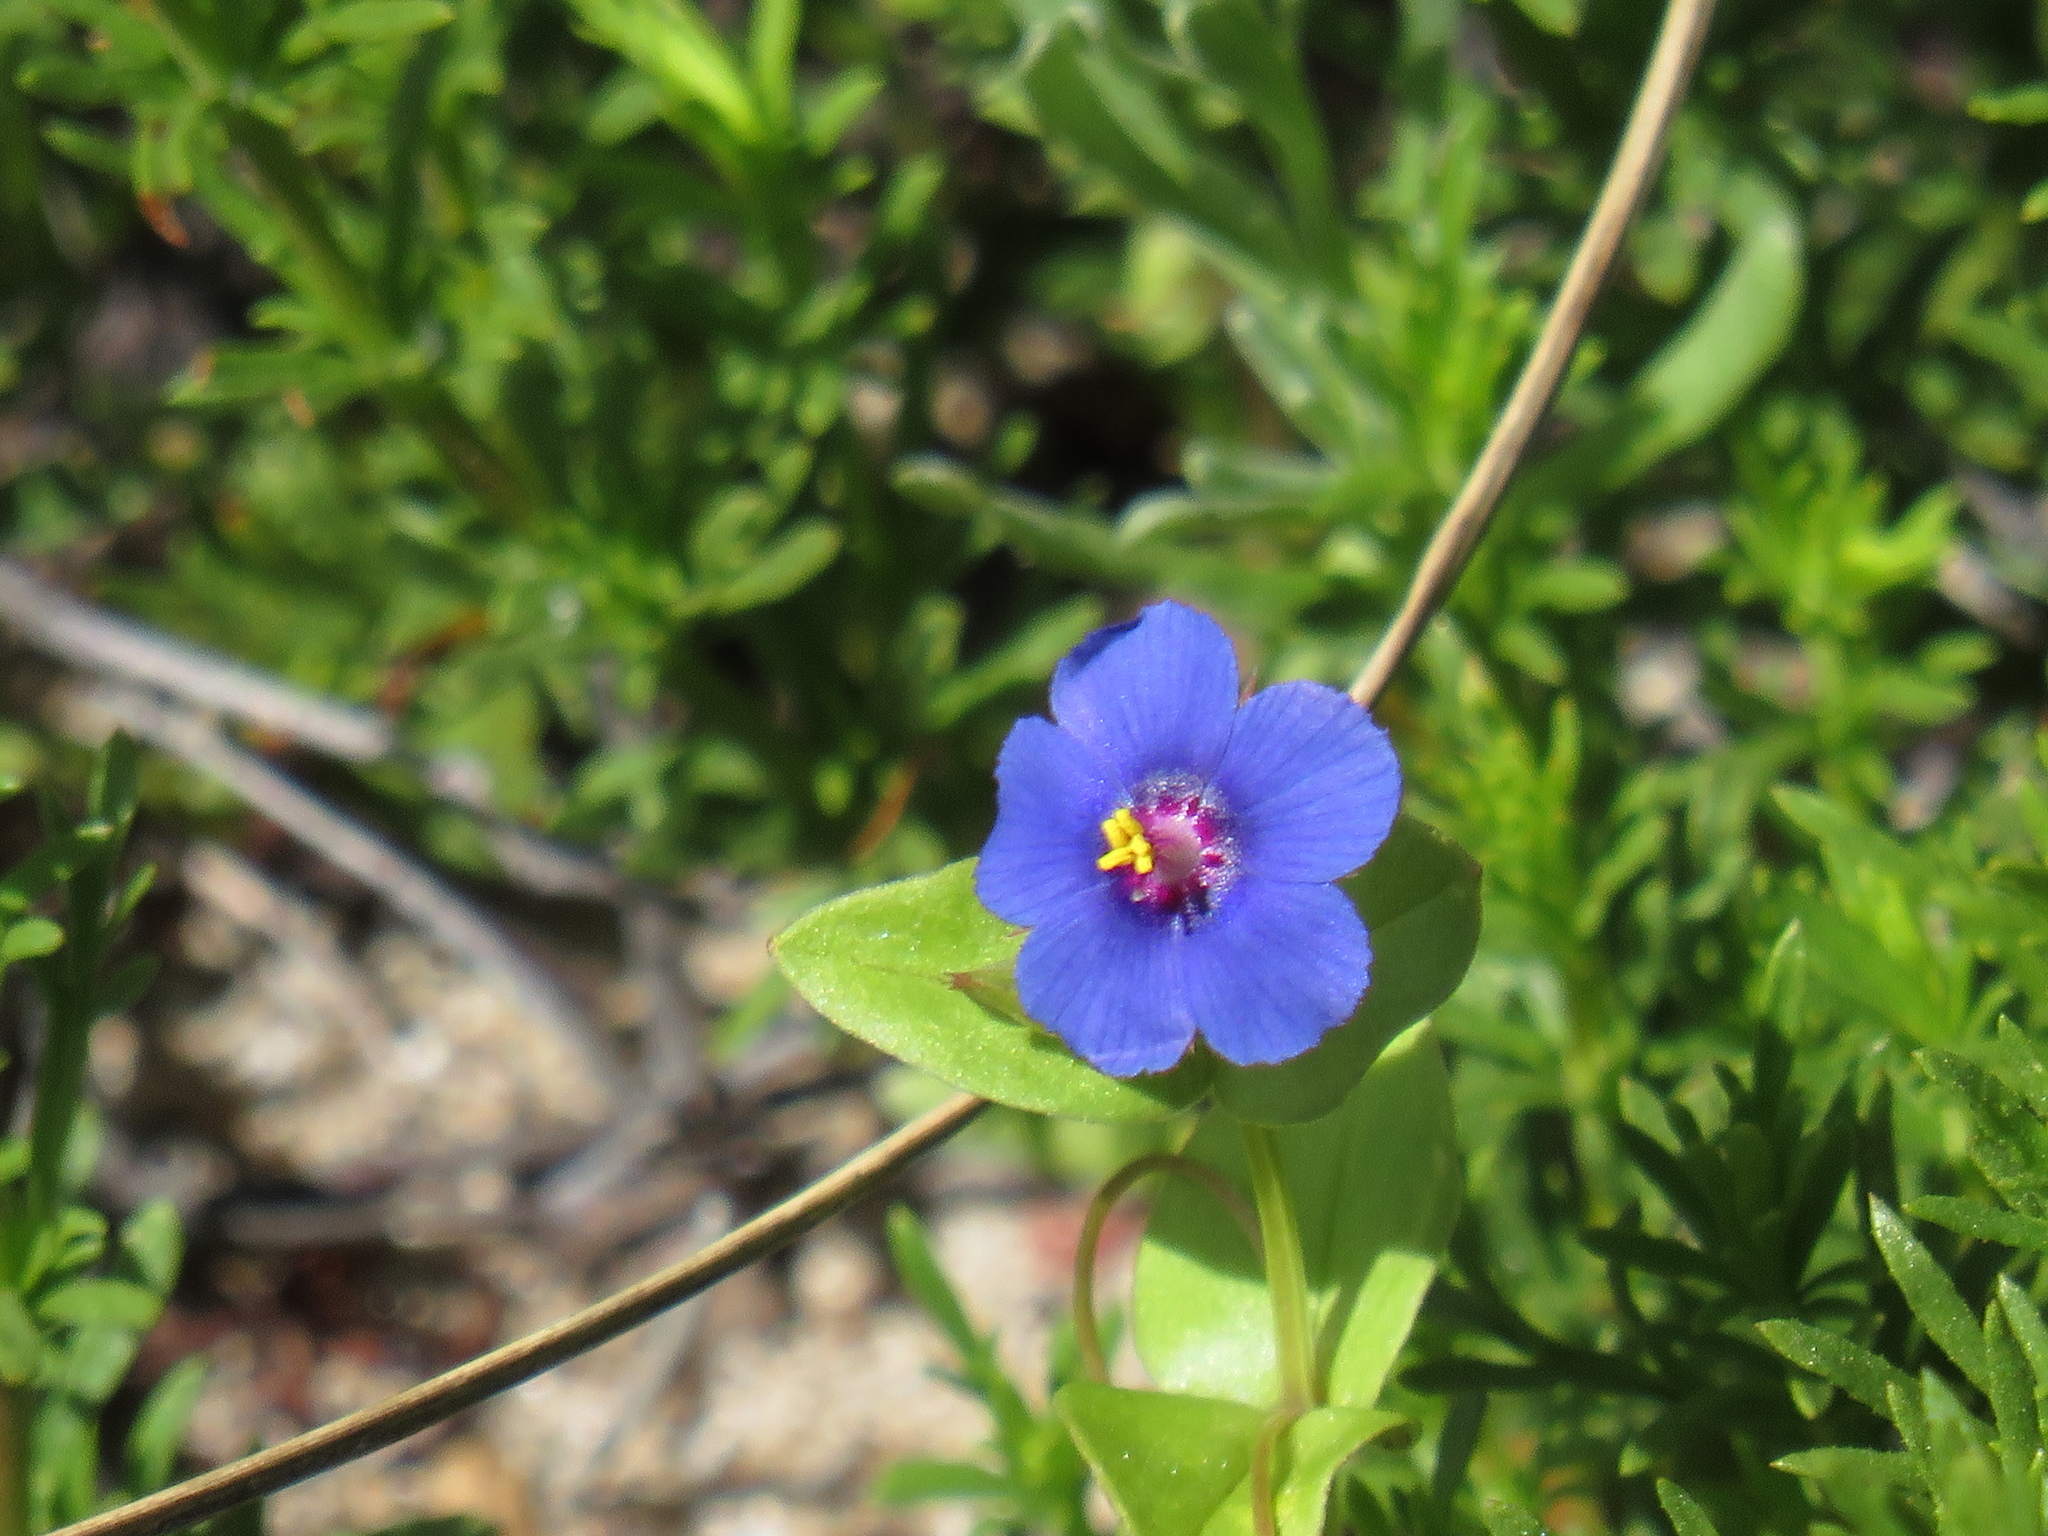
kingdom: Plantae
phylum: Tracheophyta
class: Magnoliopsida
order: Ericales
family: Primulaceae
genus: Lysimachia
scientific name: Lysimachia loeflingii
